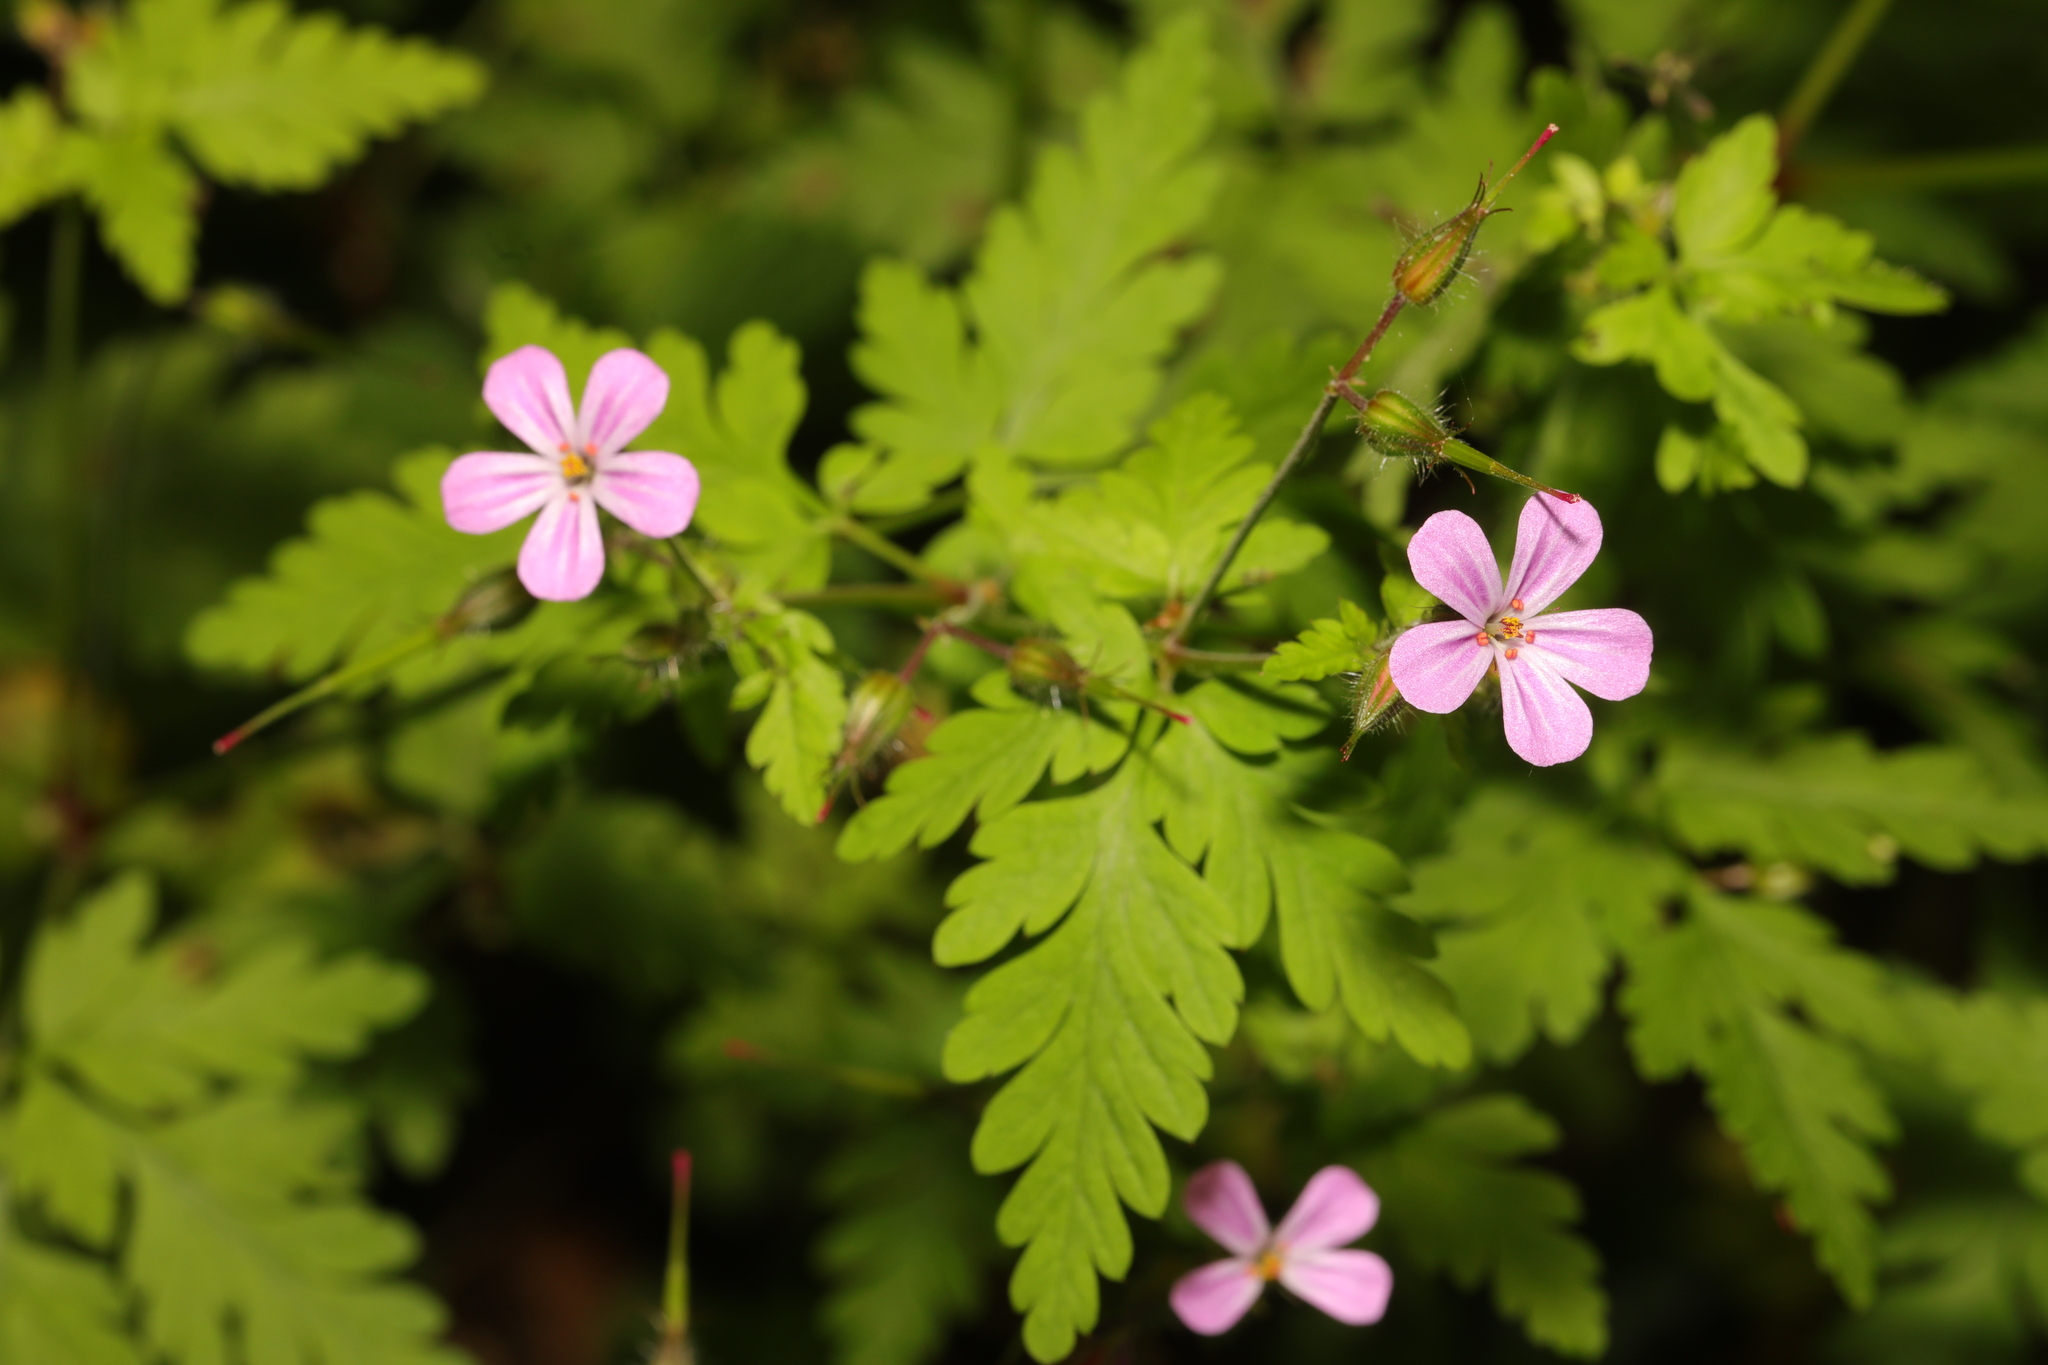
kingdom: Plantae
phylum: Tracheophyta
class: Magnoliopsida
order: Geraniales
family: Geraniaceae
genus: Geranium
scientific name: Geranium robertianum
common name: Herb-robert
